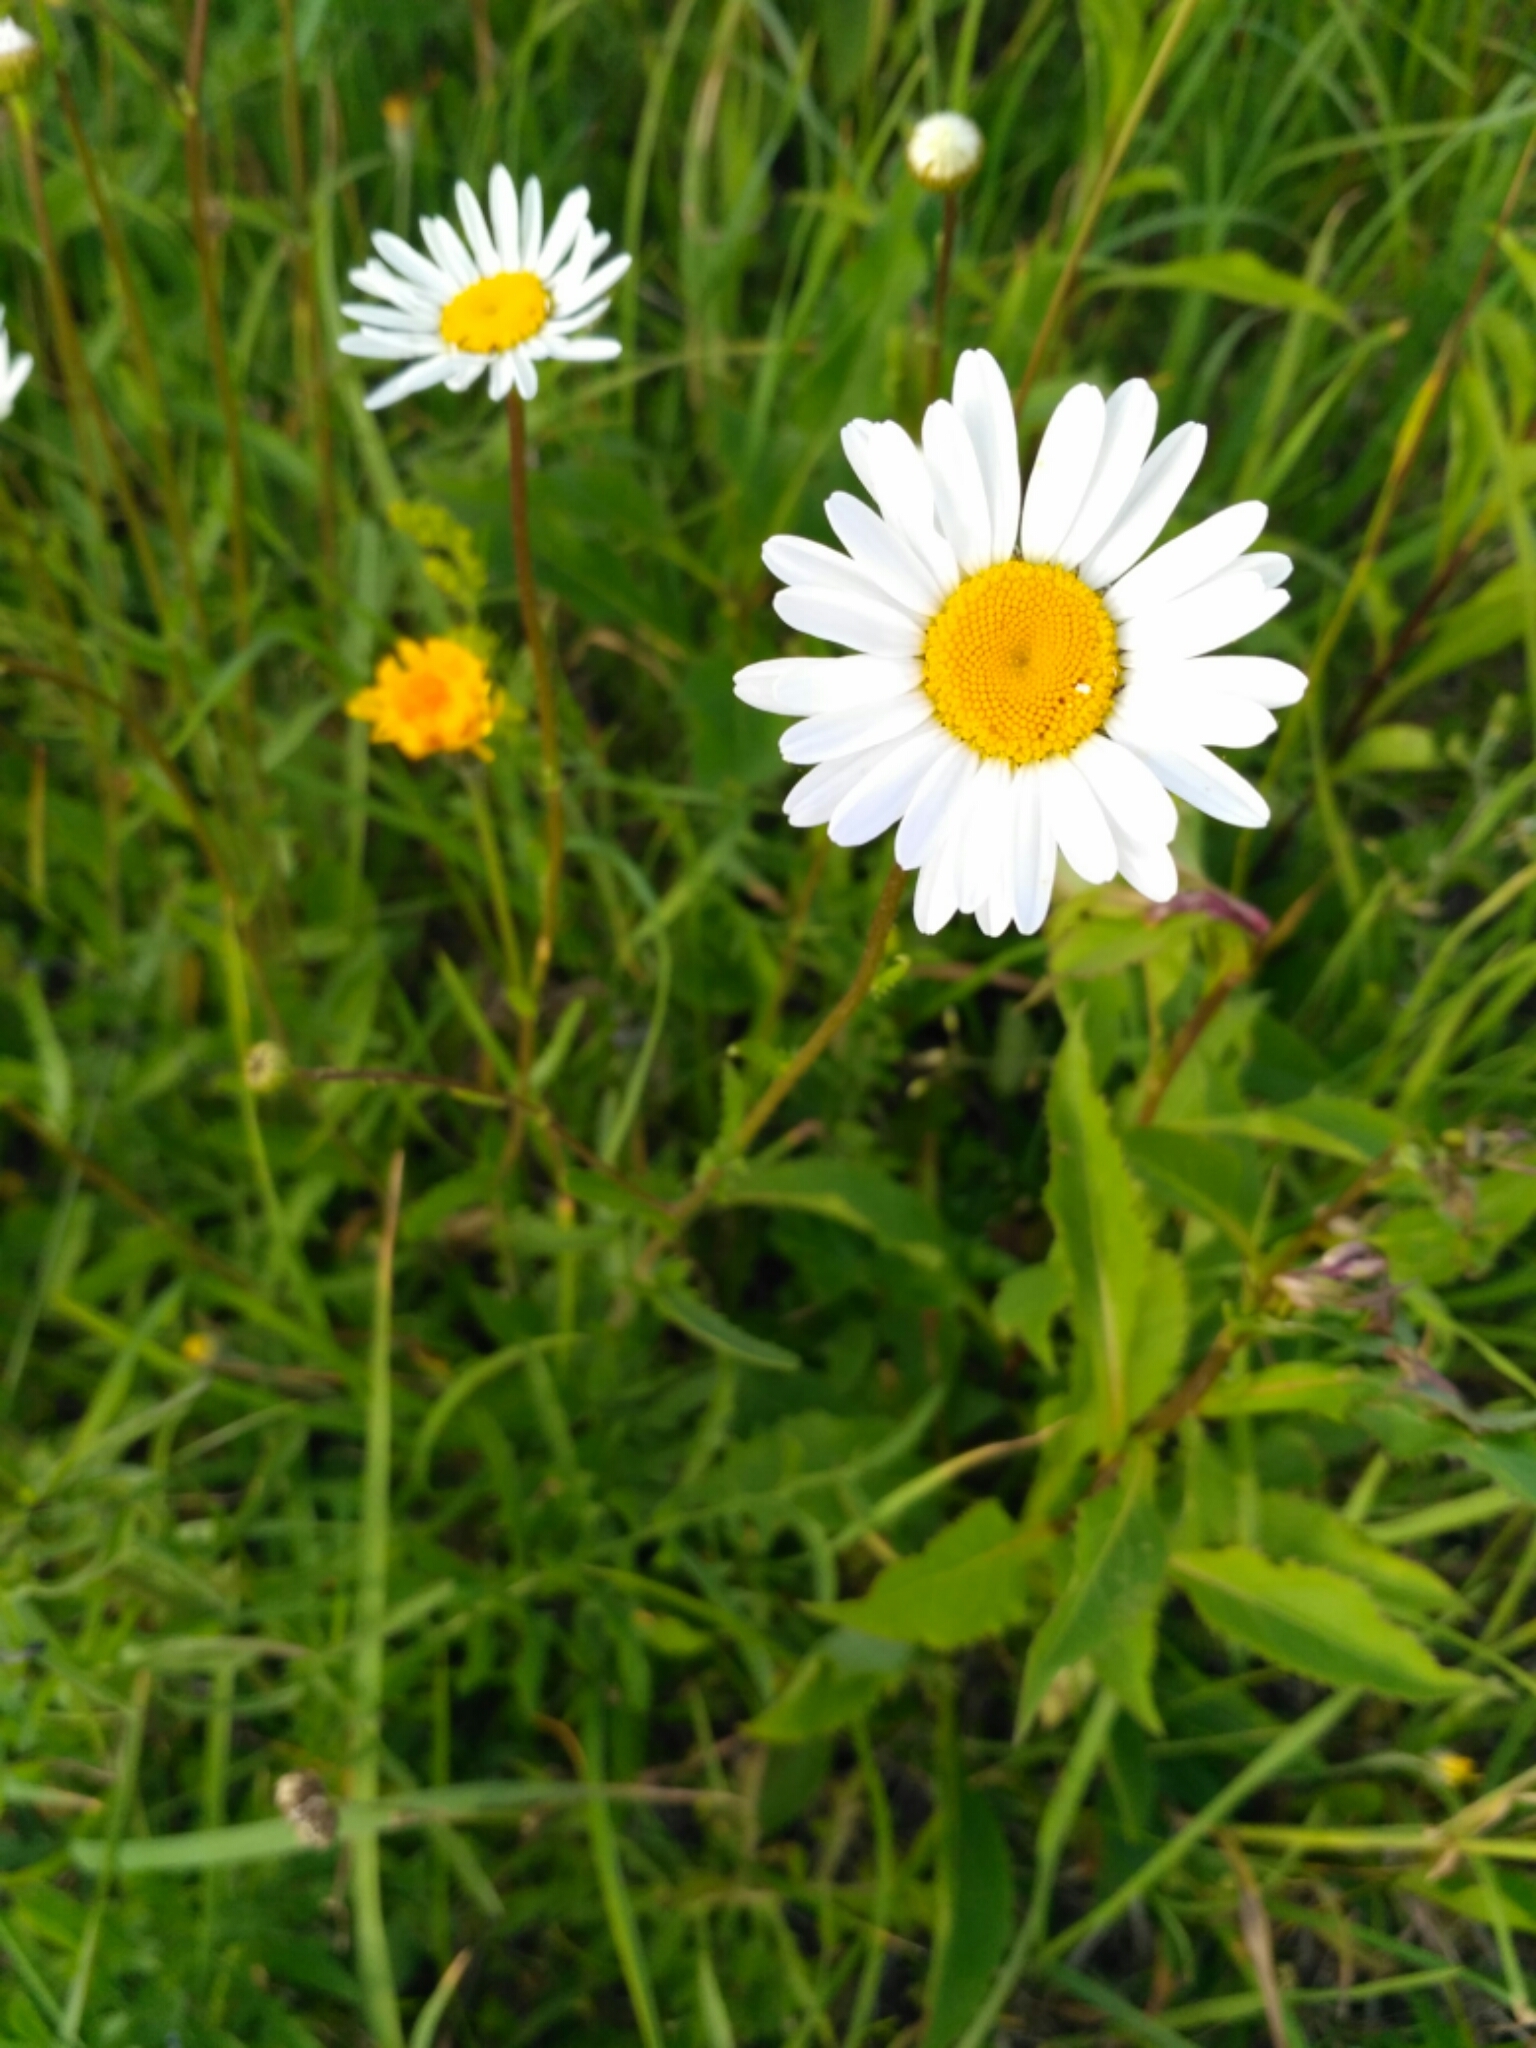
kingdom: Plantae
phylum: Tracheophyta
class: Magnoliopsida
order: Asterales
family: Asteraceae
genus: Leucanthemum
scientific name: Leucanthemum vulgare
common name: Oxeye daisy
